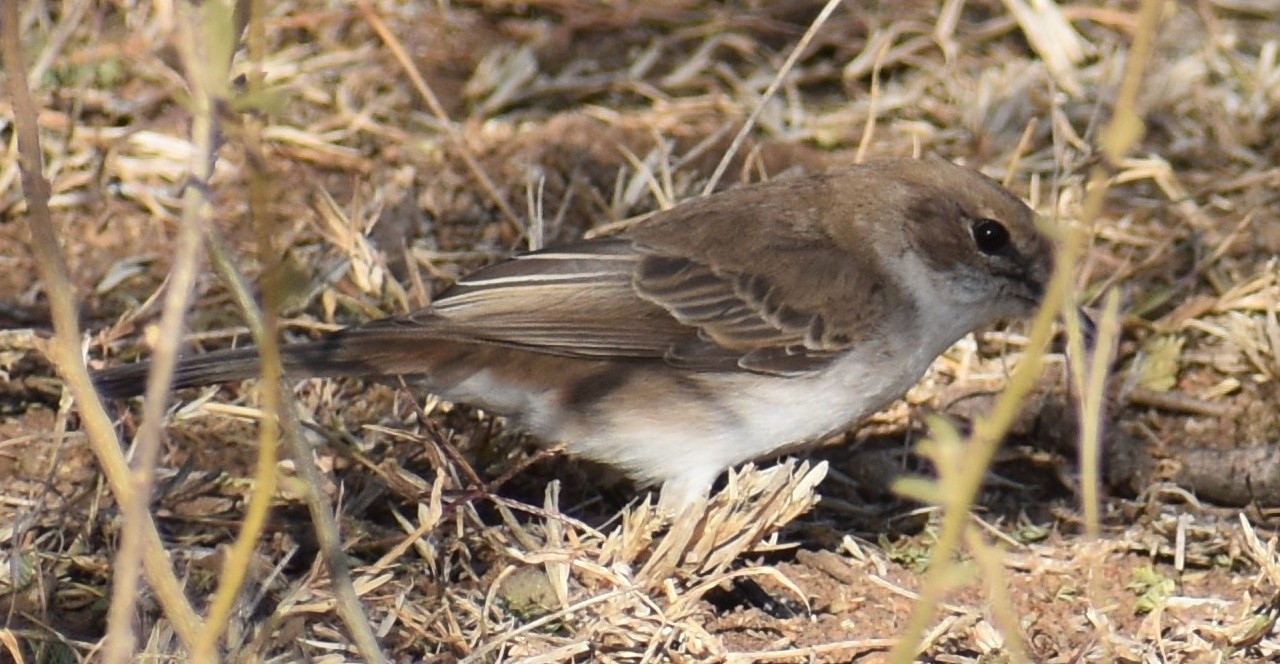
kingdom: Animalia
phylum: Chordata
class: Aves
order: Passeriformes
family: Muscicapidae
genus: Bradornis
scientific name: Bradornis mariquensis
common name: Marico flycatcher
